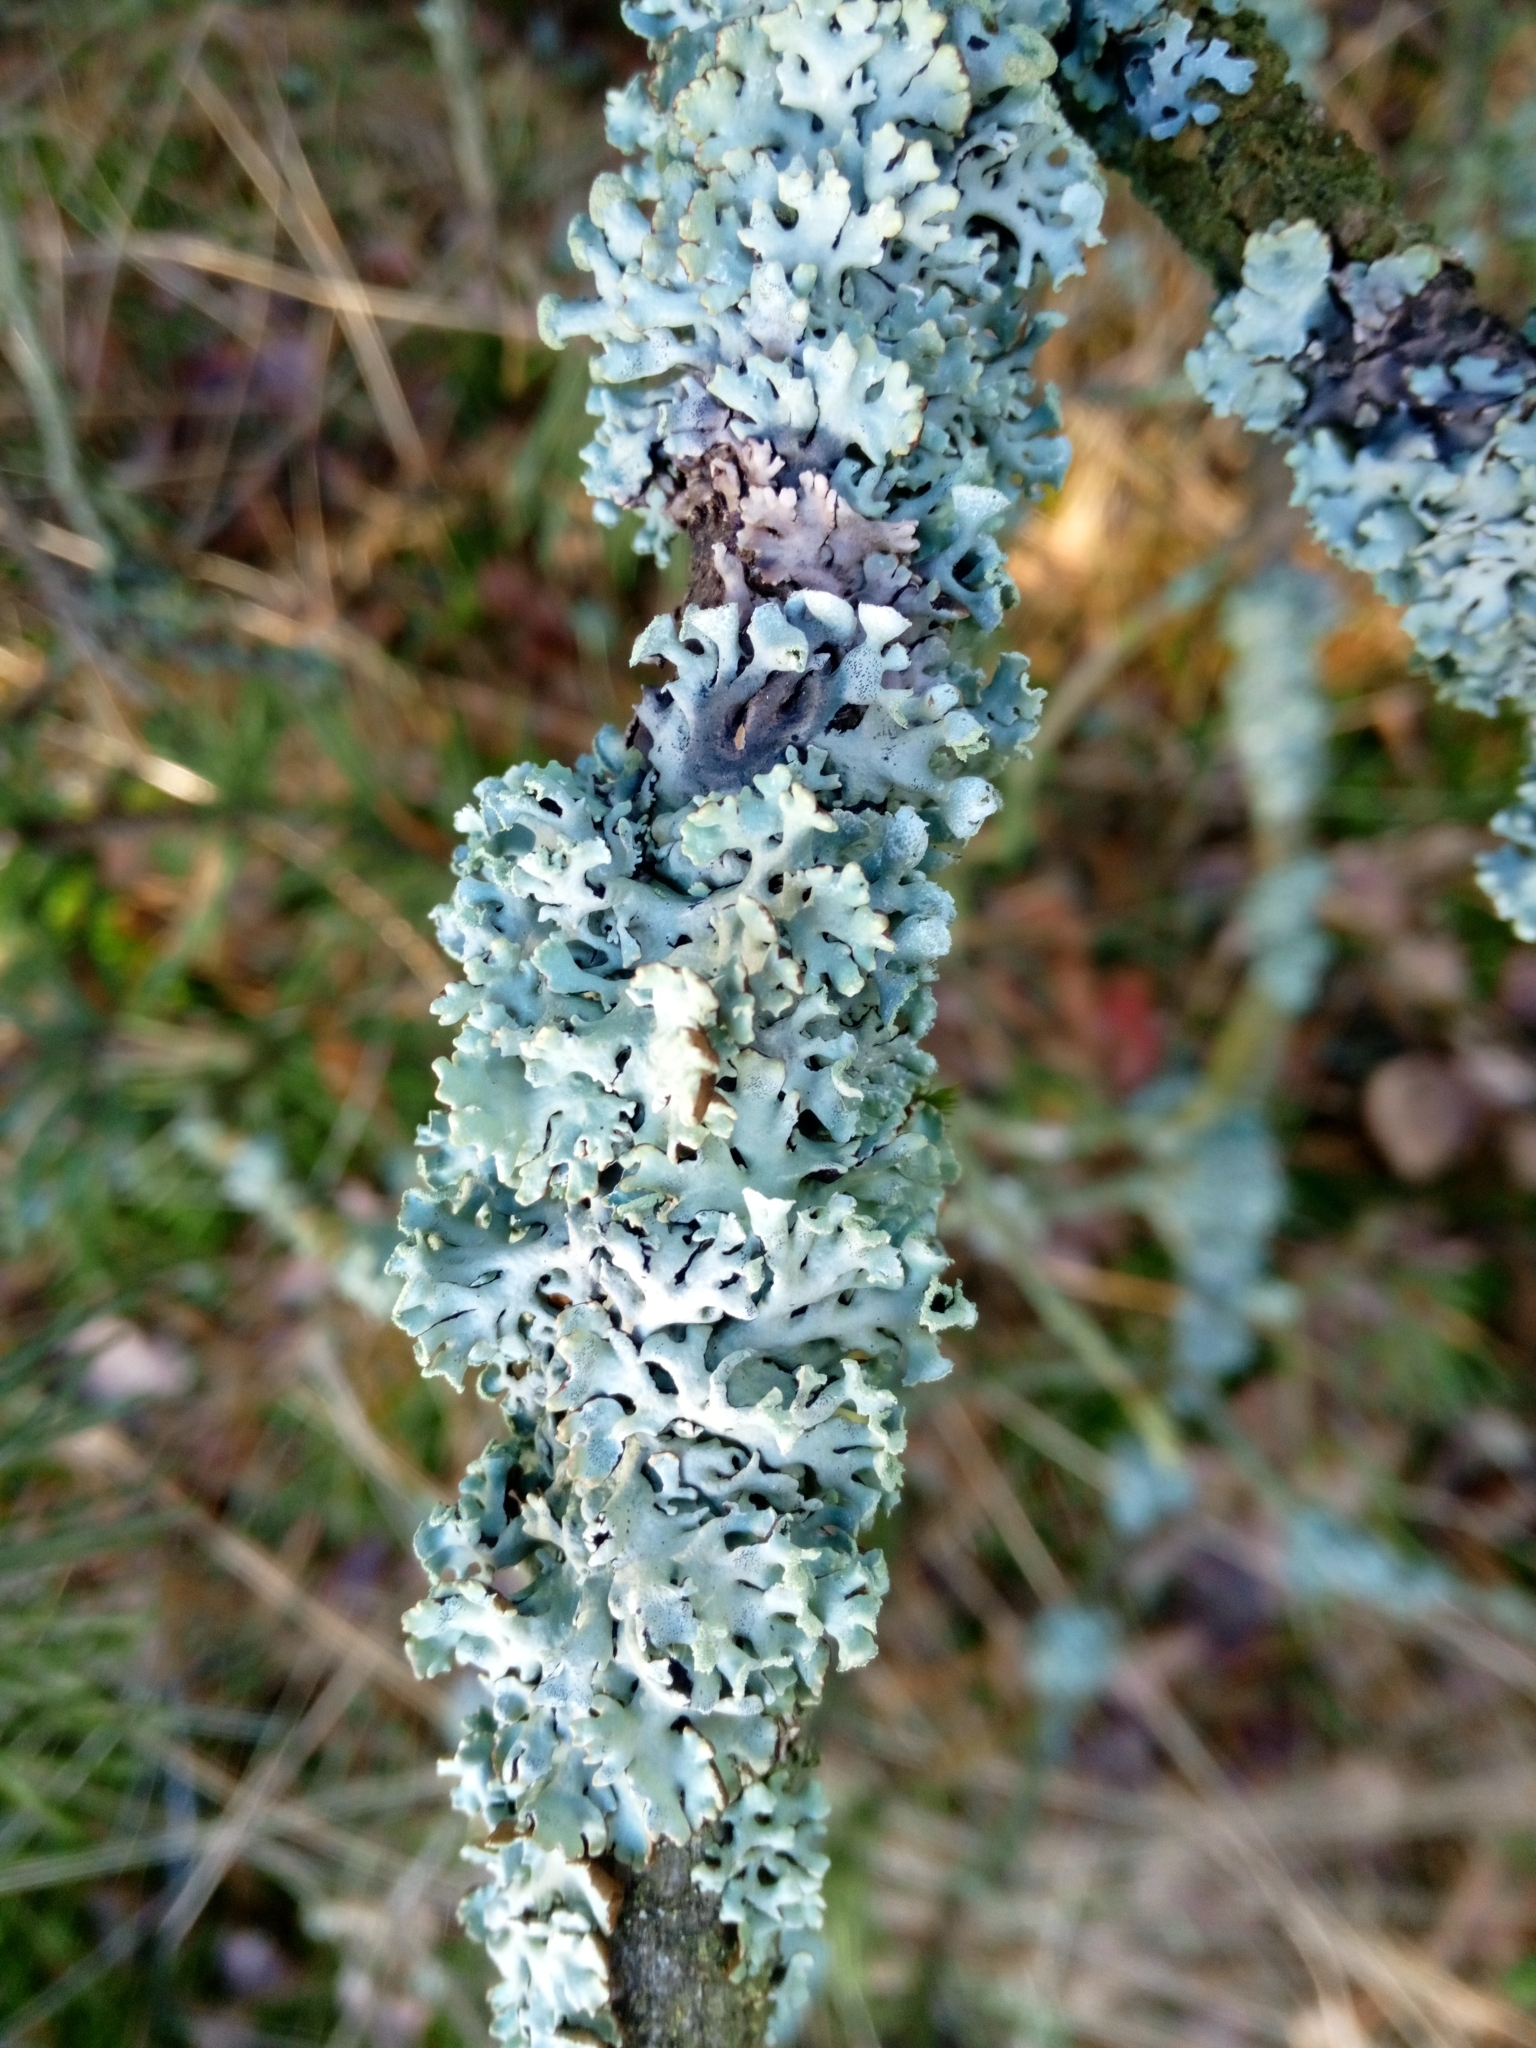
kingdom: Fungi
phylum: Ascomycota
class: Lecanoromycetes
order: Lecanorales
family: Parmeliaceae
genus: Hypogymnia
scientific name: Hypogymnia physodes
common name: Dark crottle
